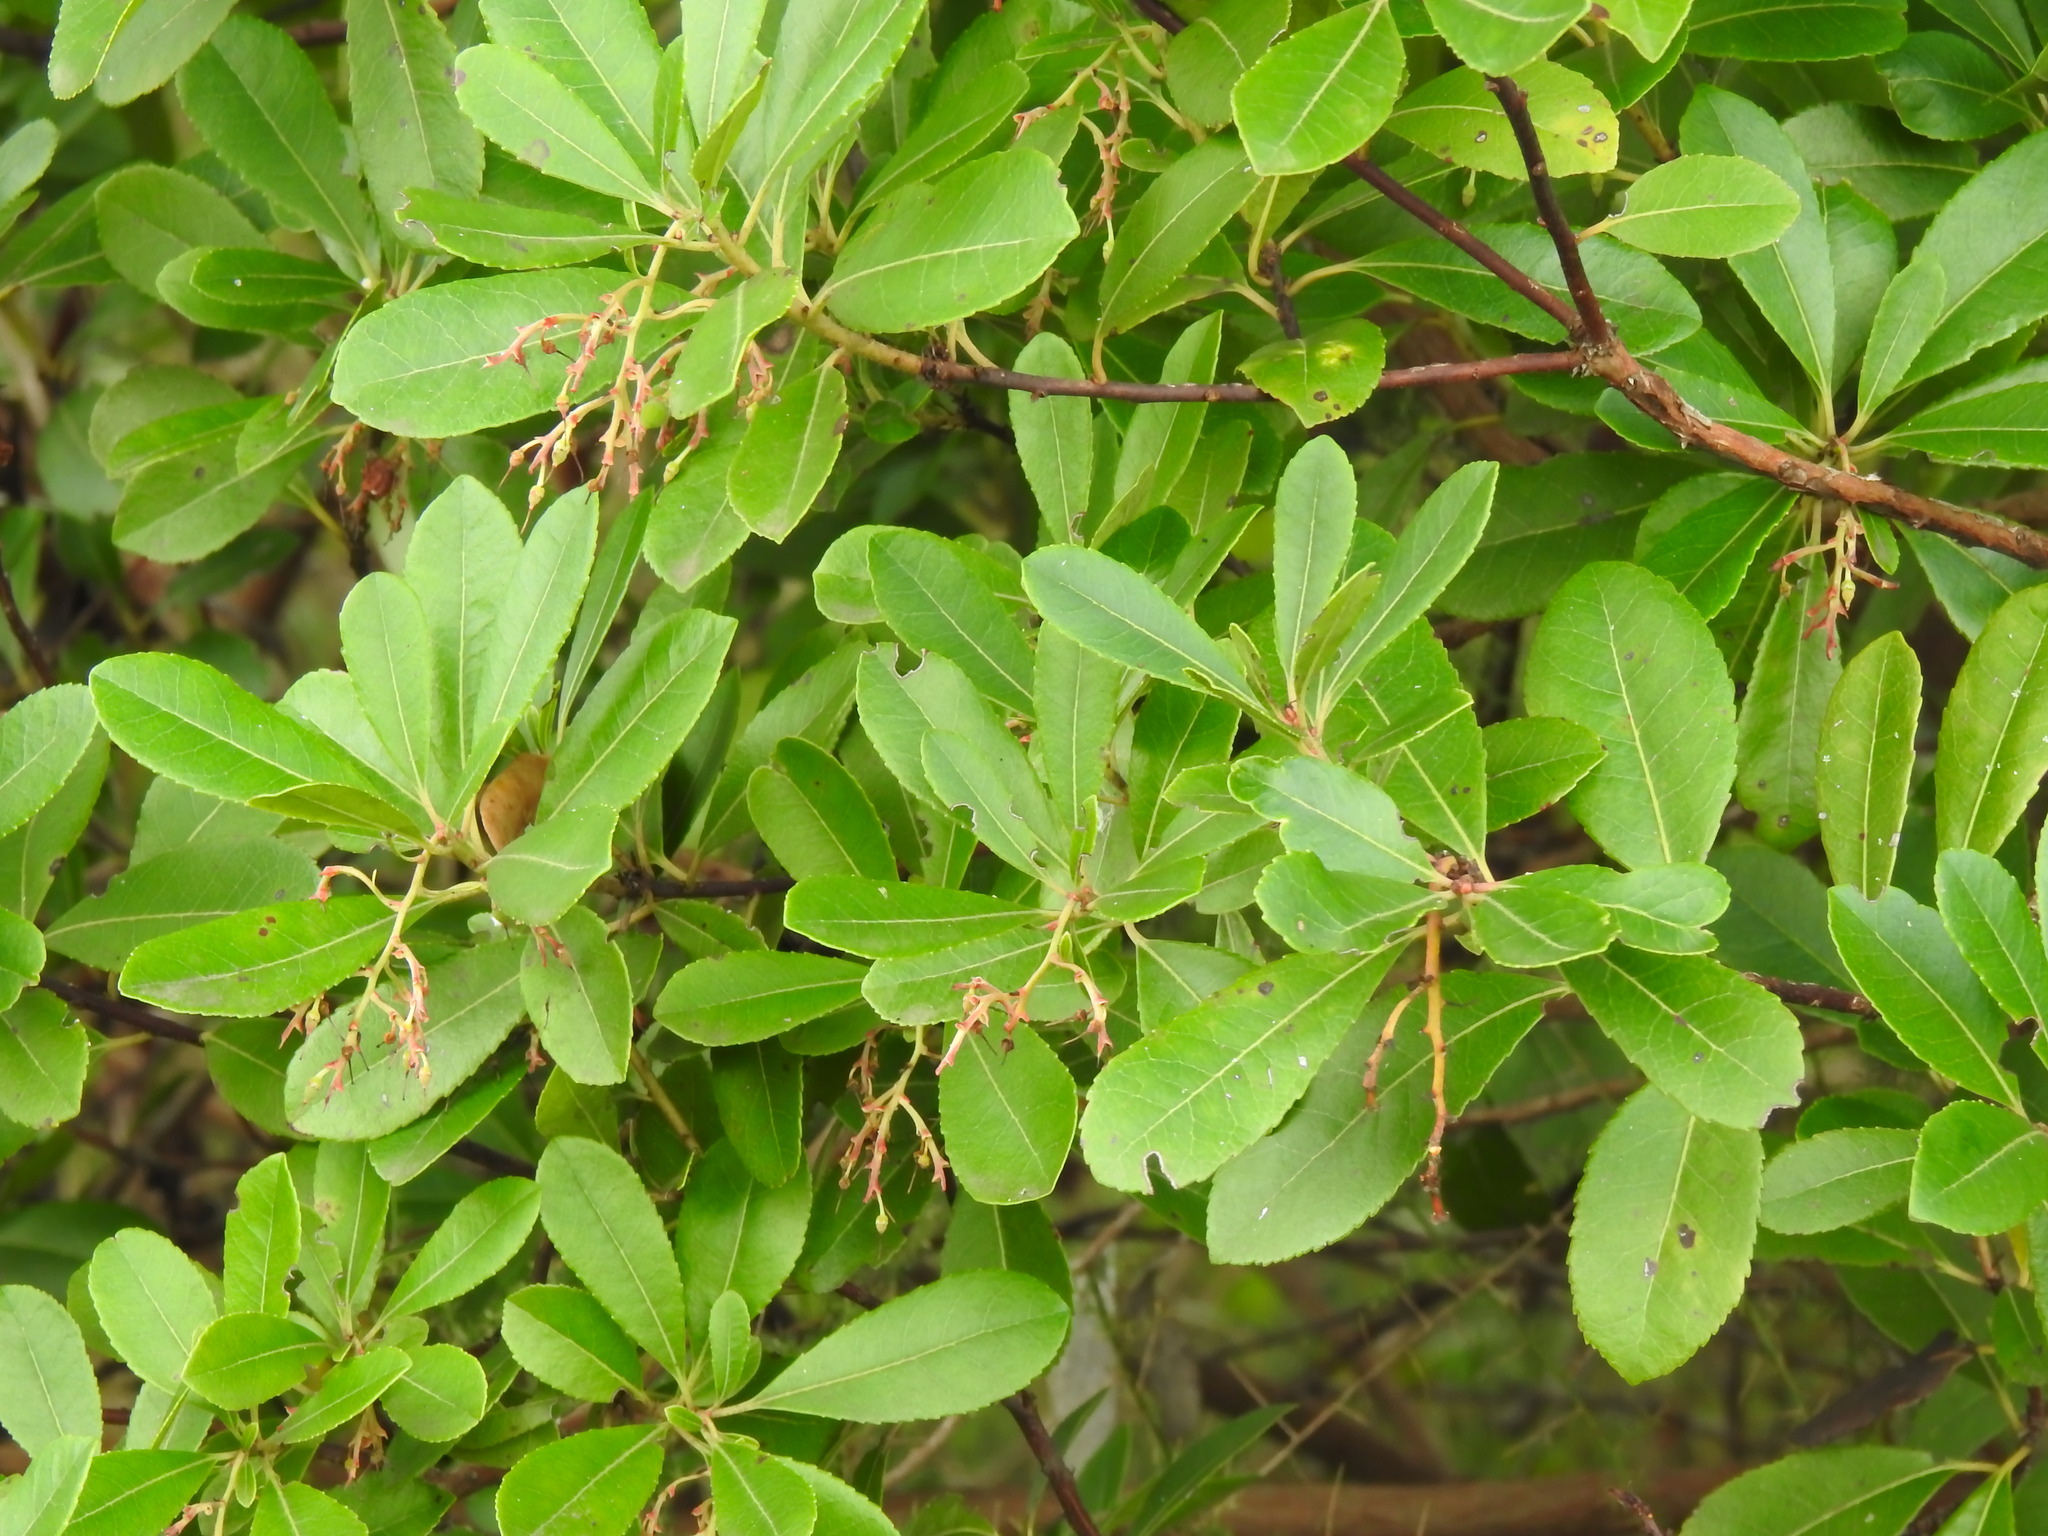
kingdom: Plantae
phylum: Tracheophyta
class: Magnoliopsida
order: Ericales
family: Ericaceae
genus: Arbutus
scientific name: Arbutus unedo
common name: Strawberry-tree
